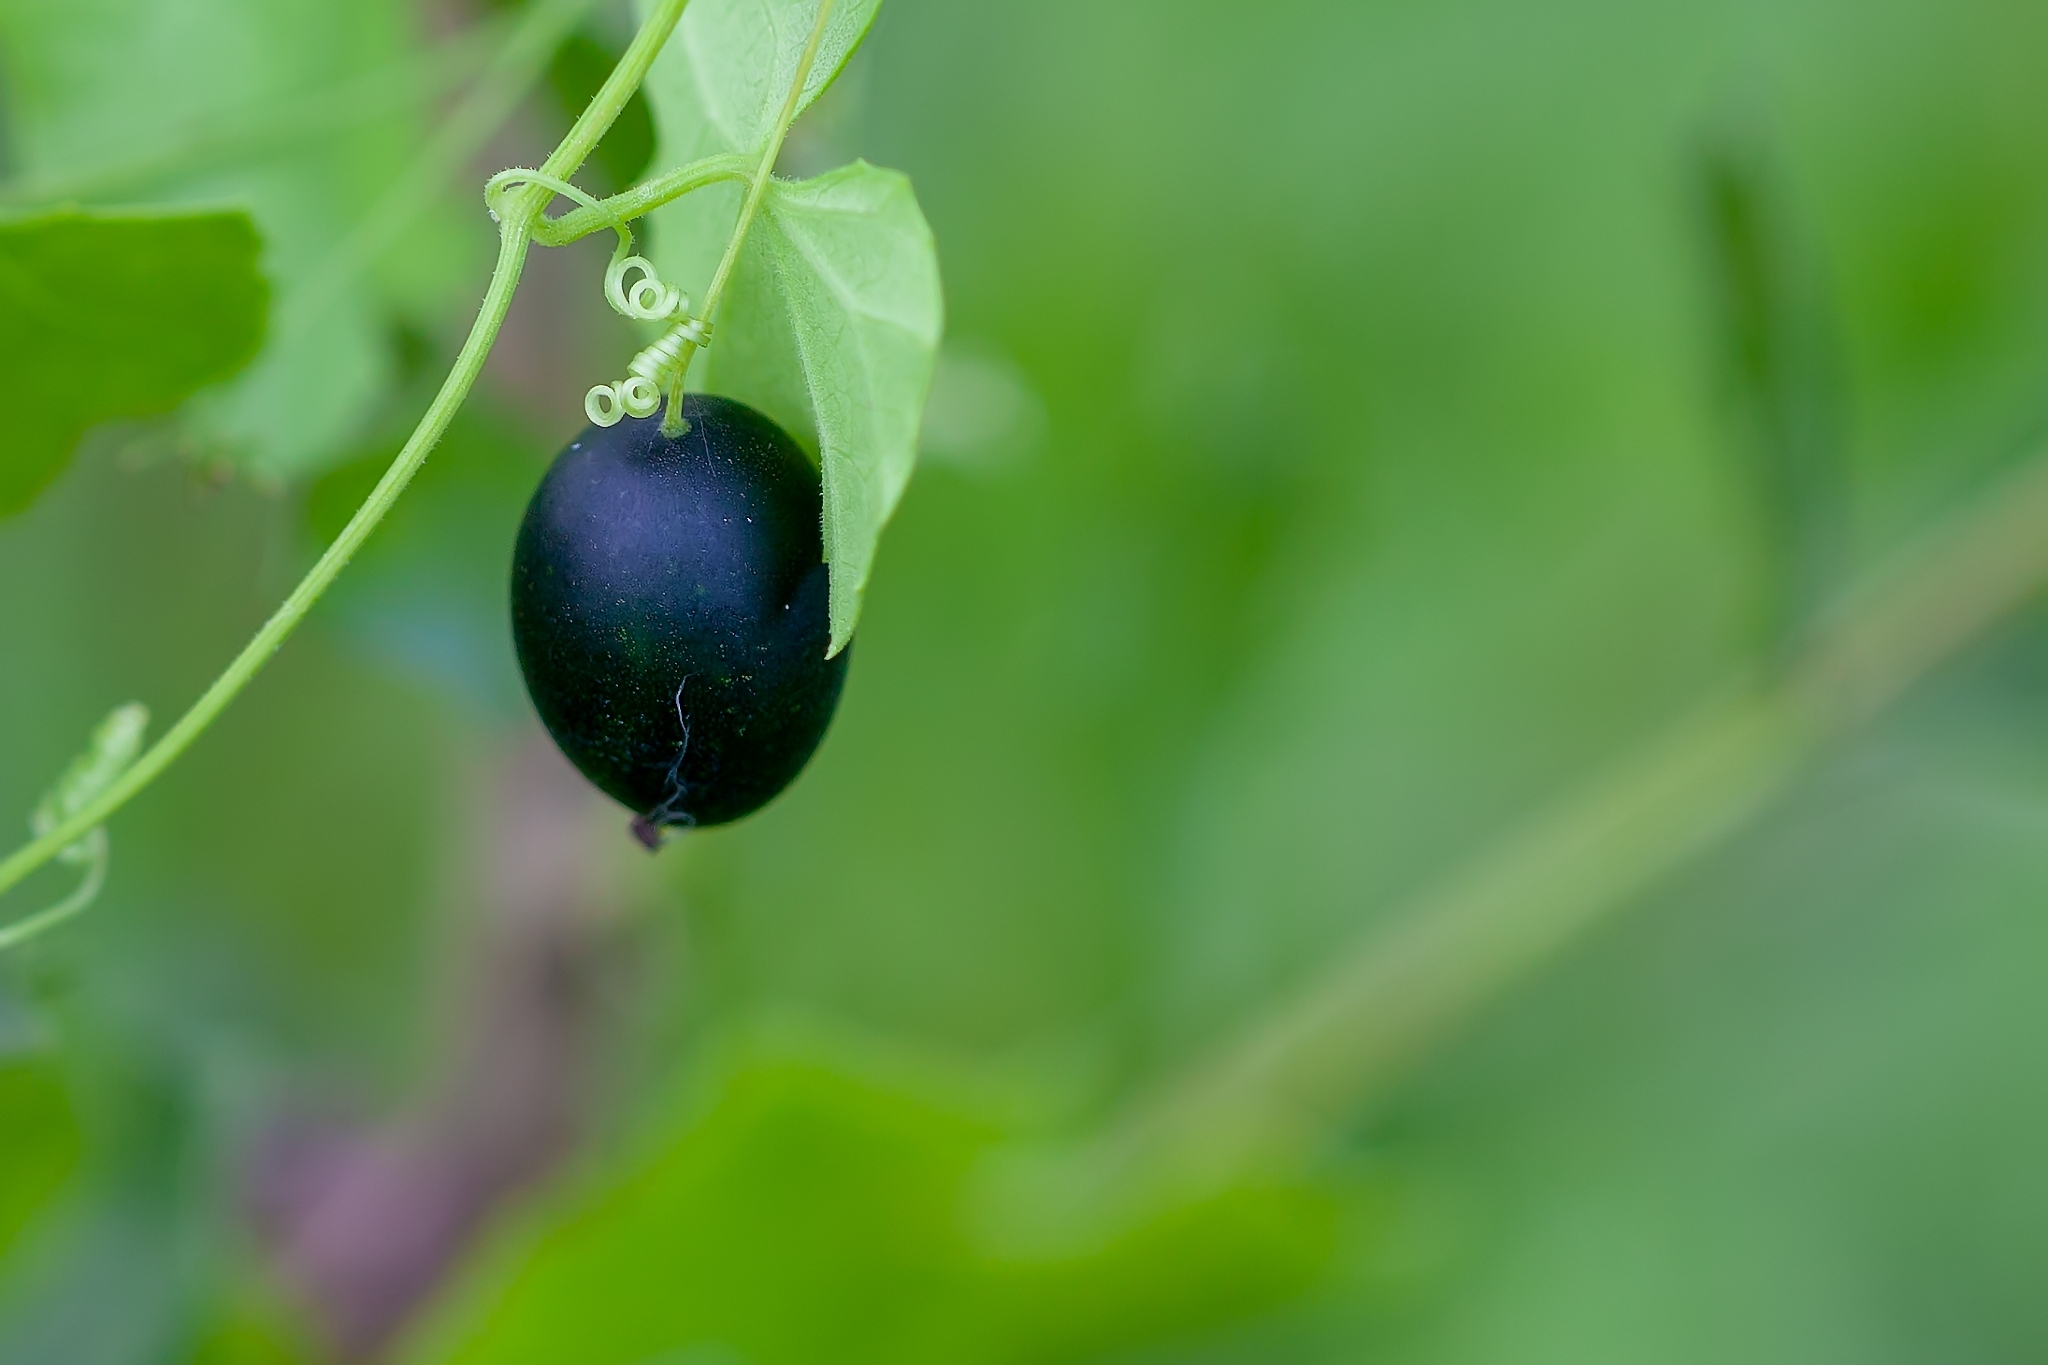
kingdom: Plantae
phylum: Tracheophyta
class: Magnoliopsida
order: Cucurbitales
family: Cucurbitaceae
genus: Melothria
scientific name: Melothria pendula
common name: Creeping-cucumber
